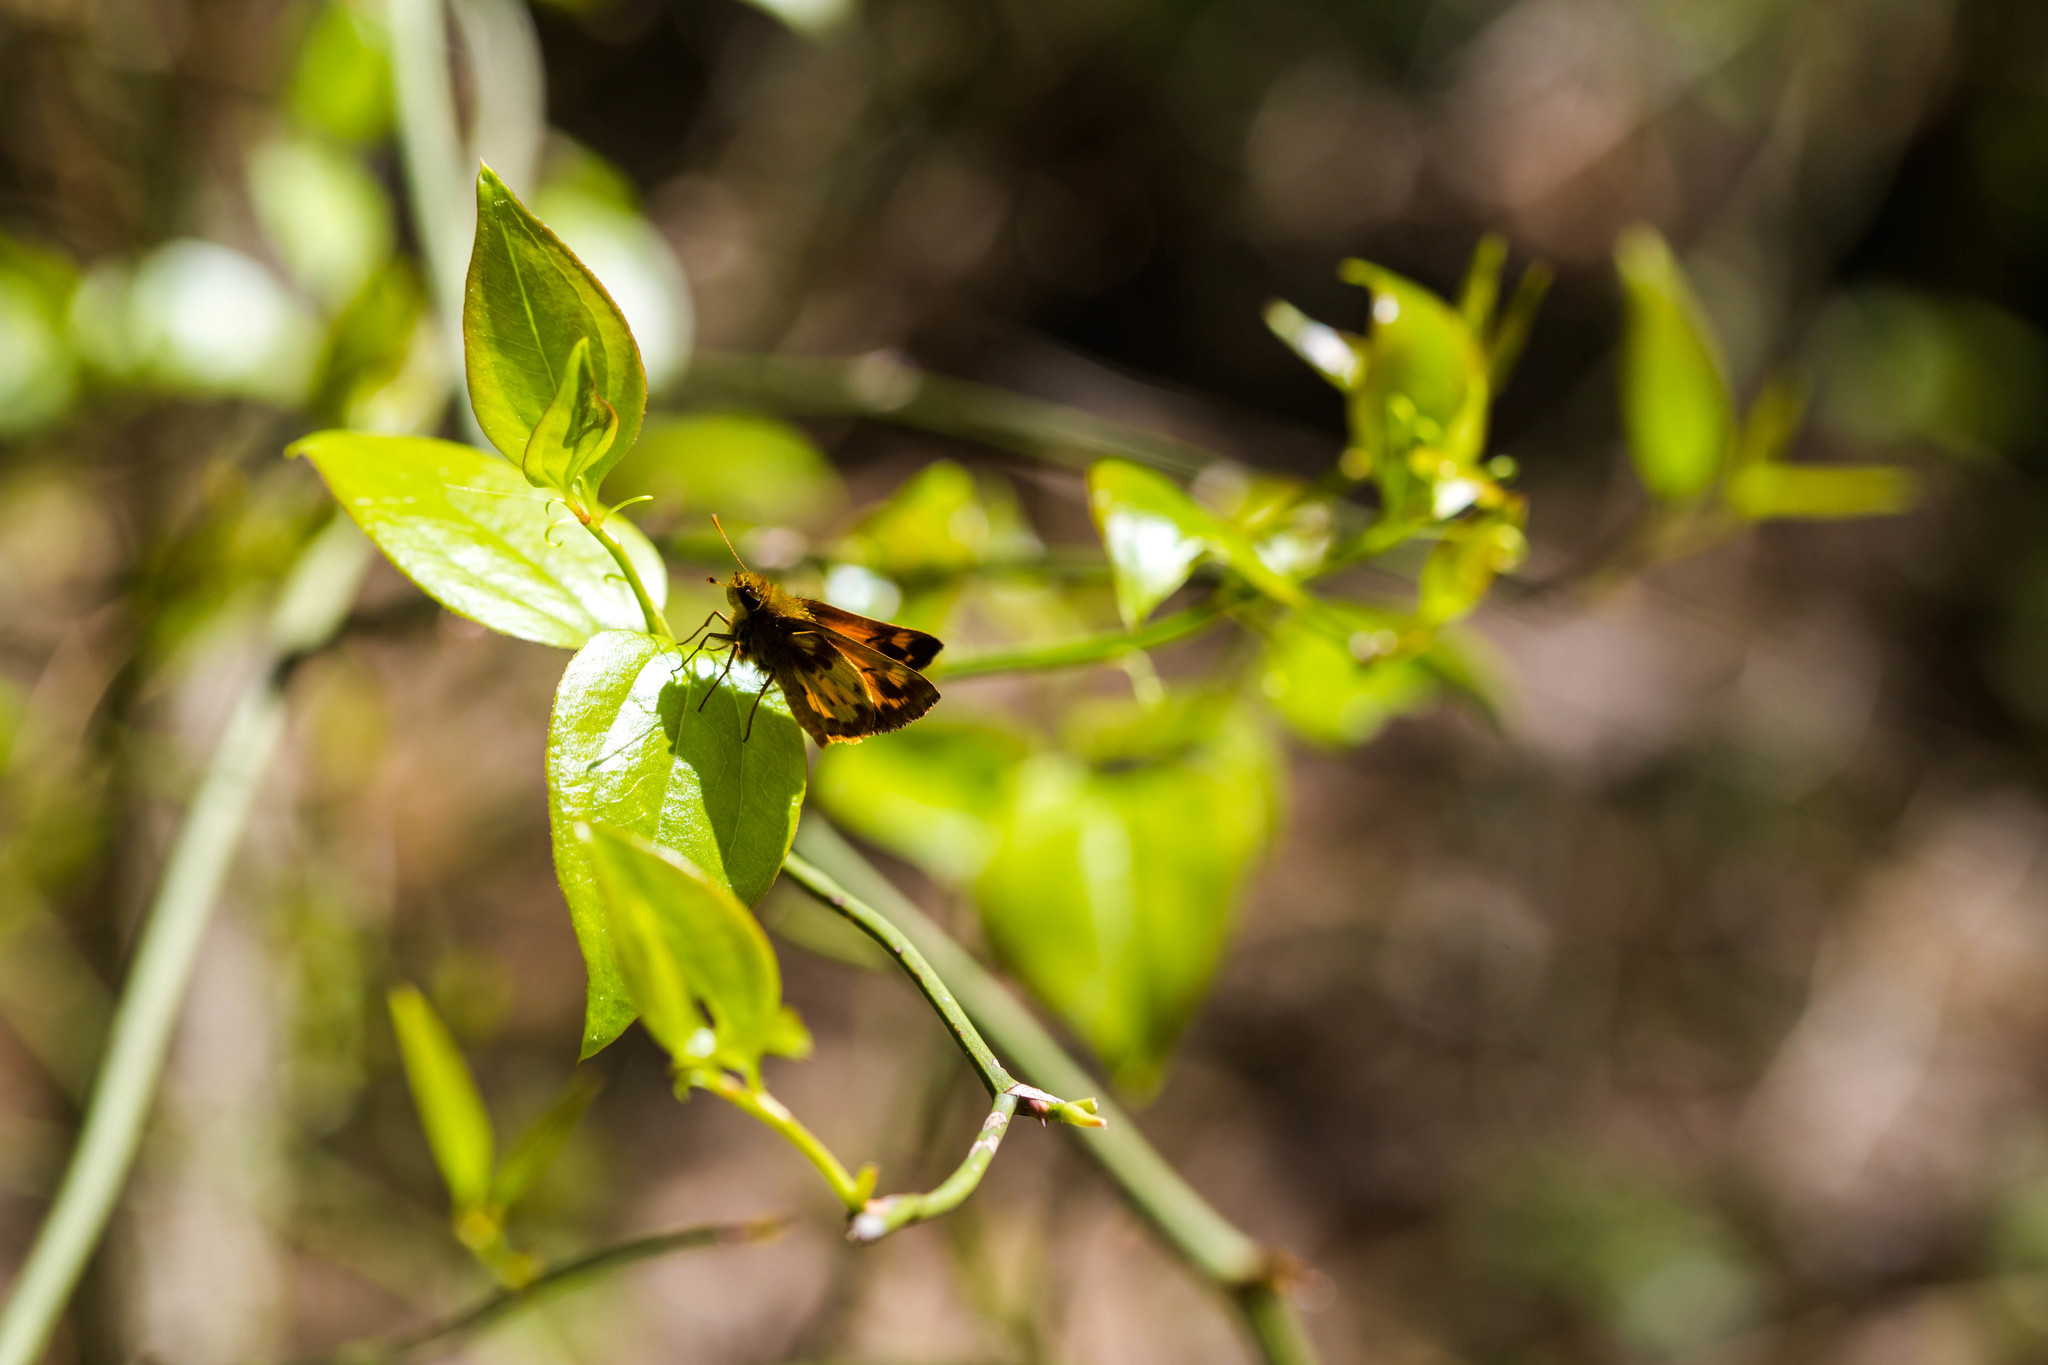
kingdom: Animalia
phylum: Arthropoda
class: Insecta
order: Lepidoptera
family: Hesperiidae
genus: Lon
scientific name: Lon zabulon
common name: Zabulon skipper
